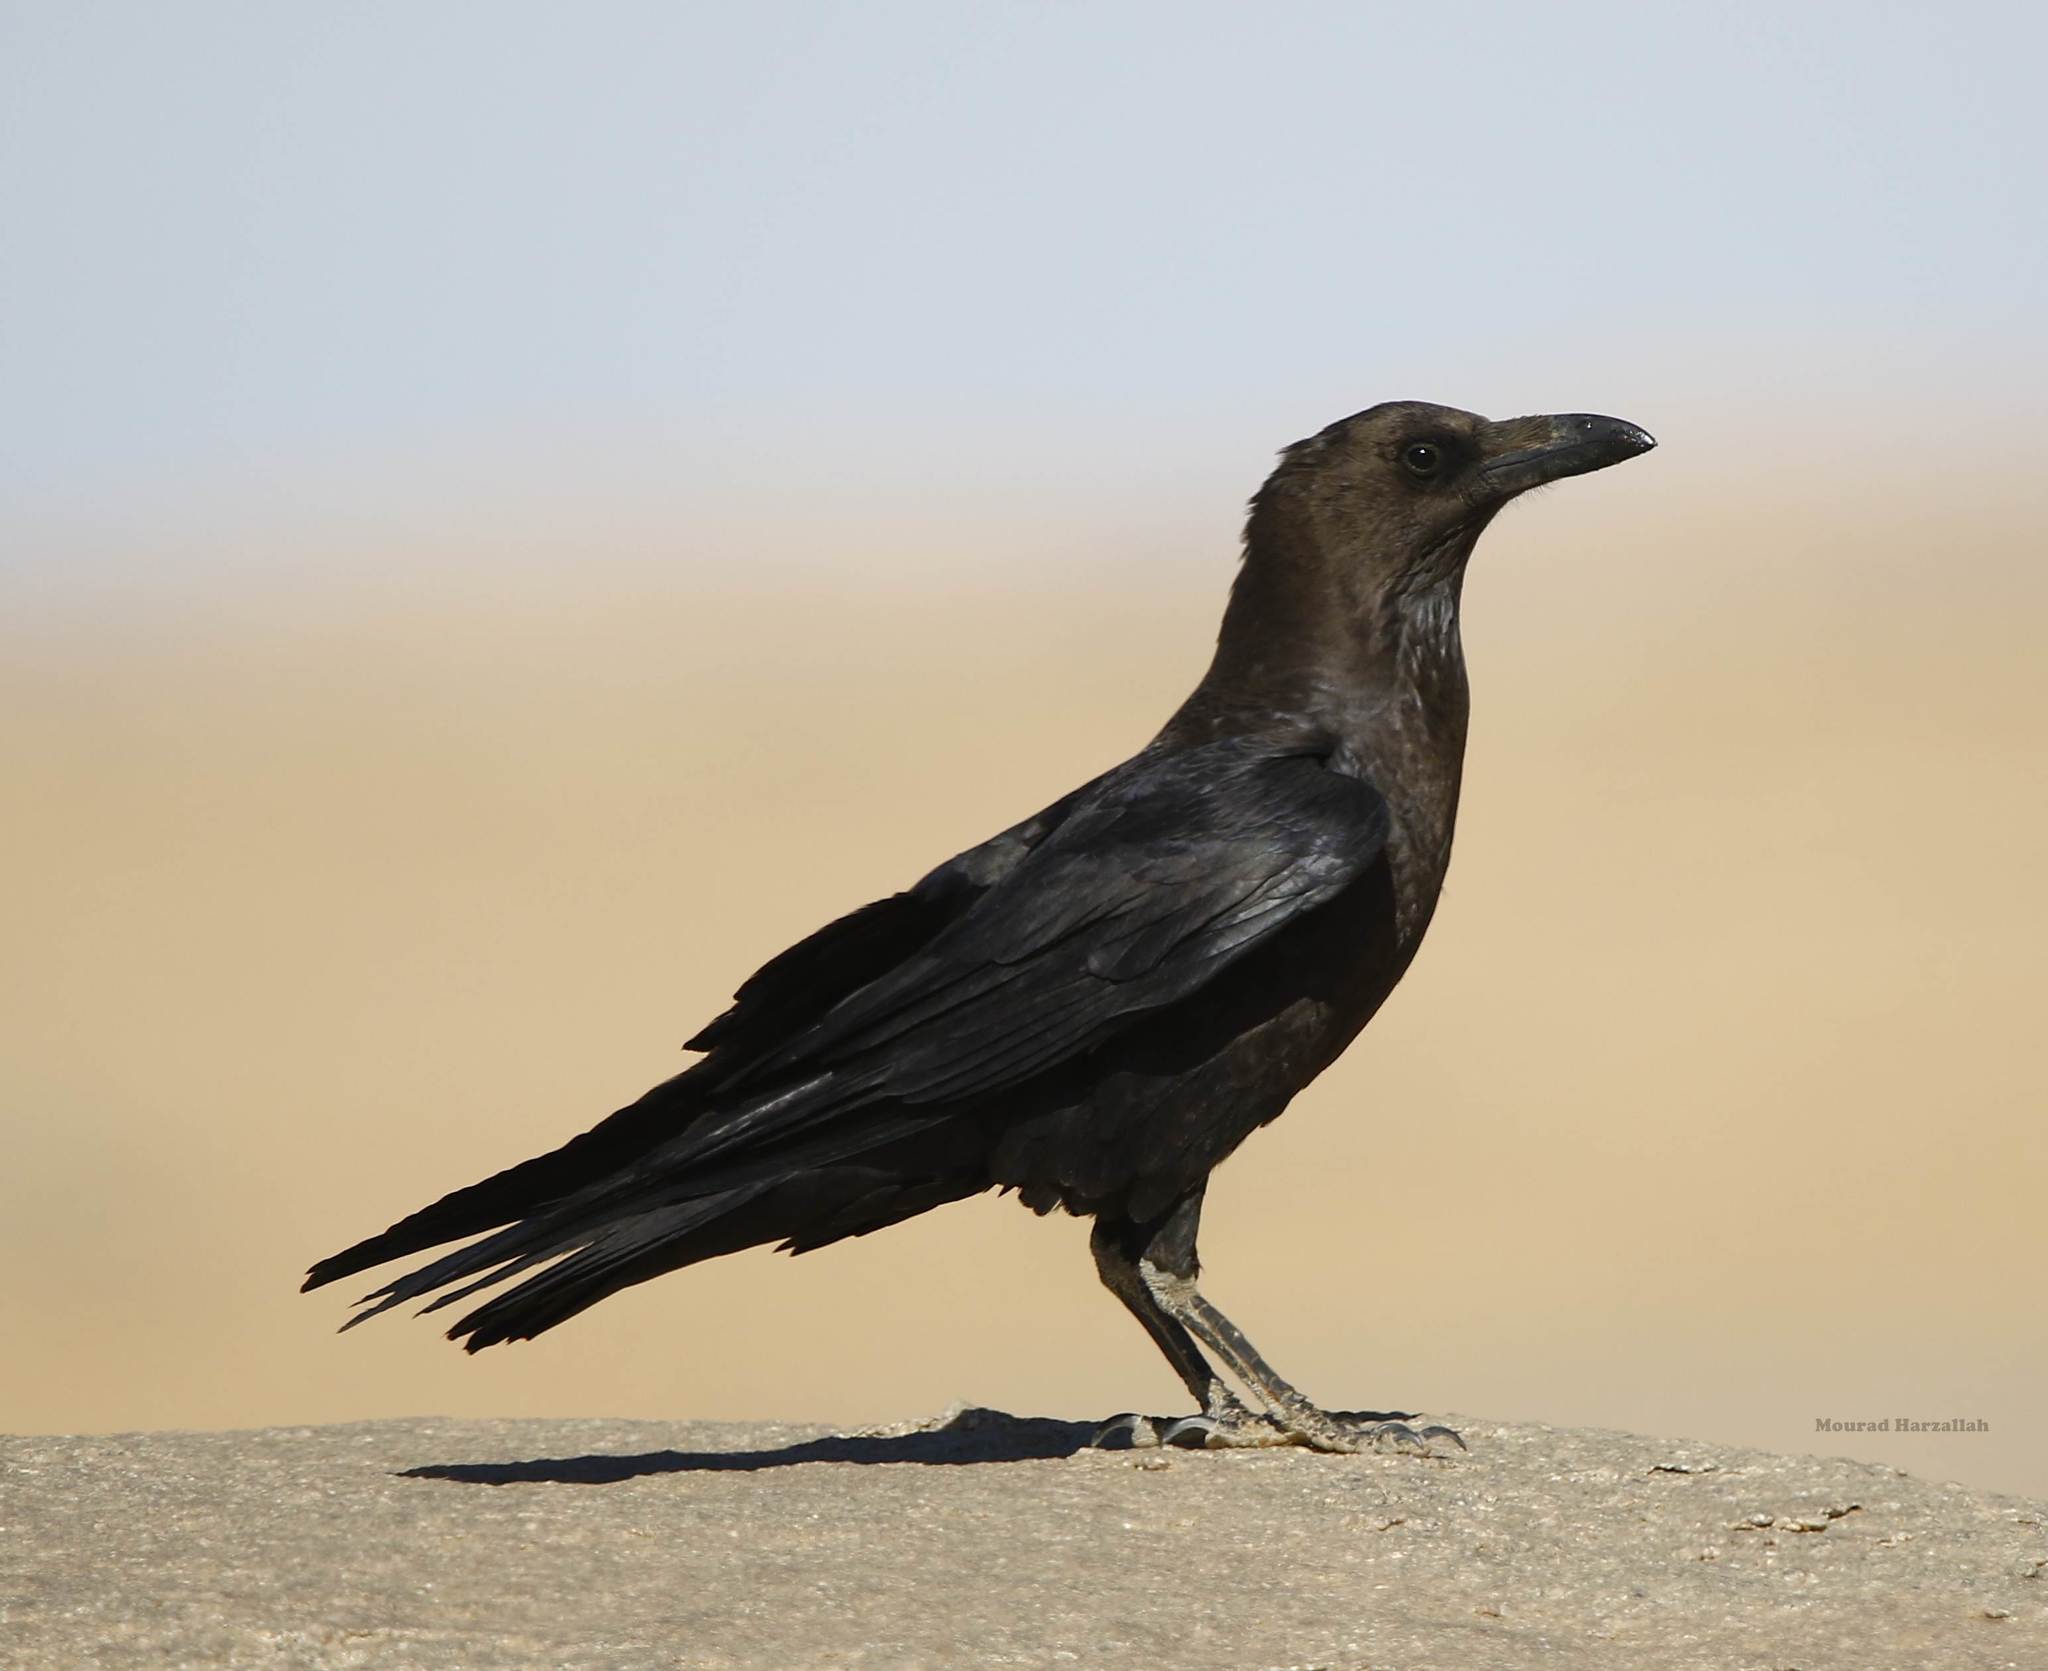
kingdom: Animalia
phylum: Chordata
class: Aves
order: Passeriformes
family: Corvidae
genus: Corvus
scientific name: Corvus ruficollis
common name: Brown-necked raven
